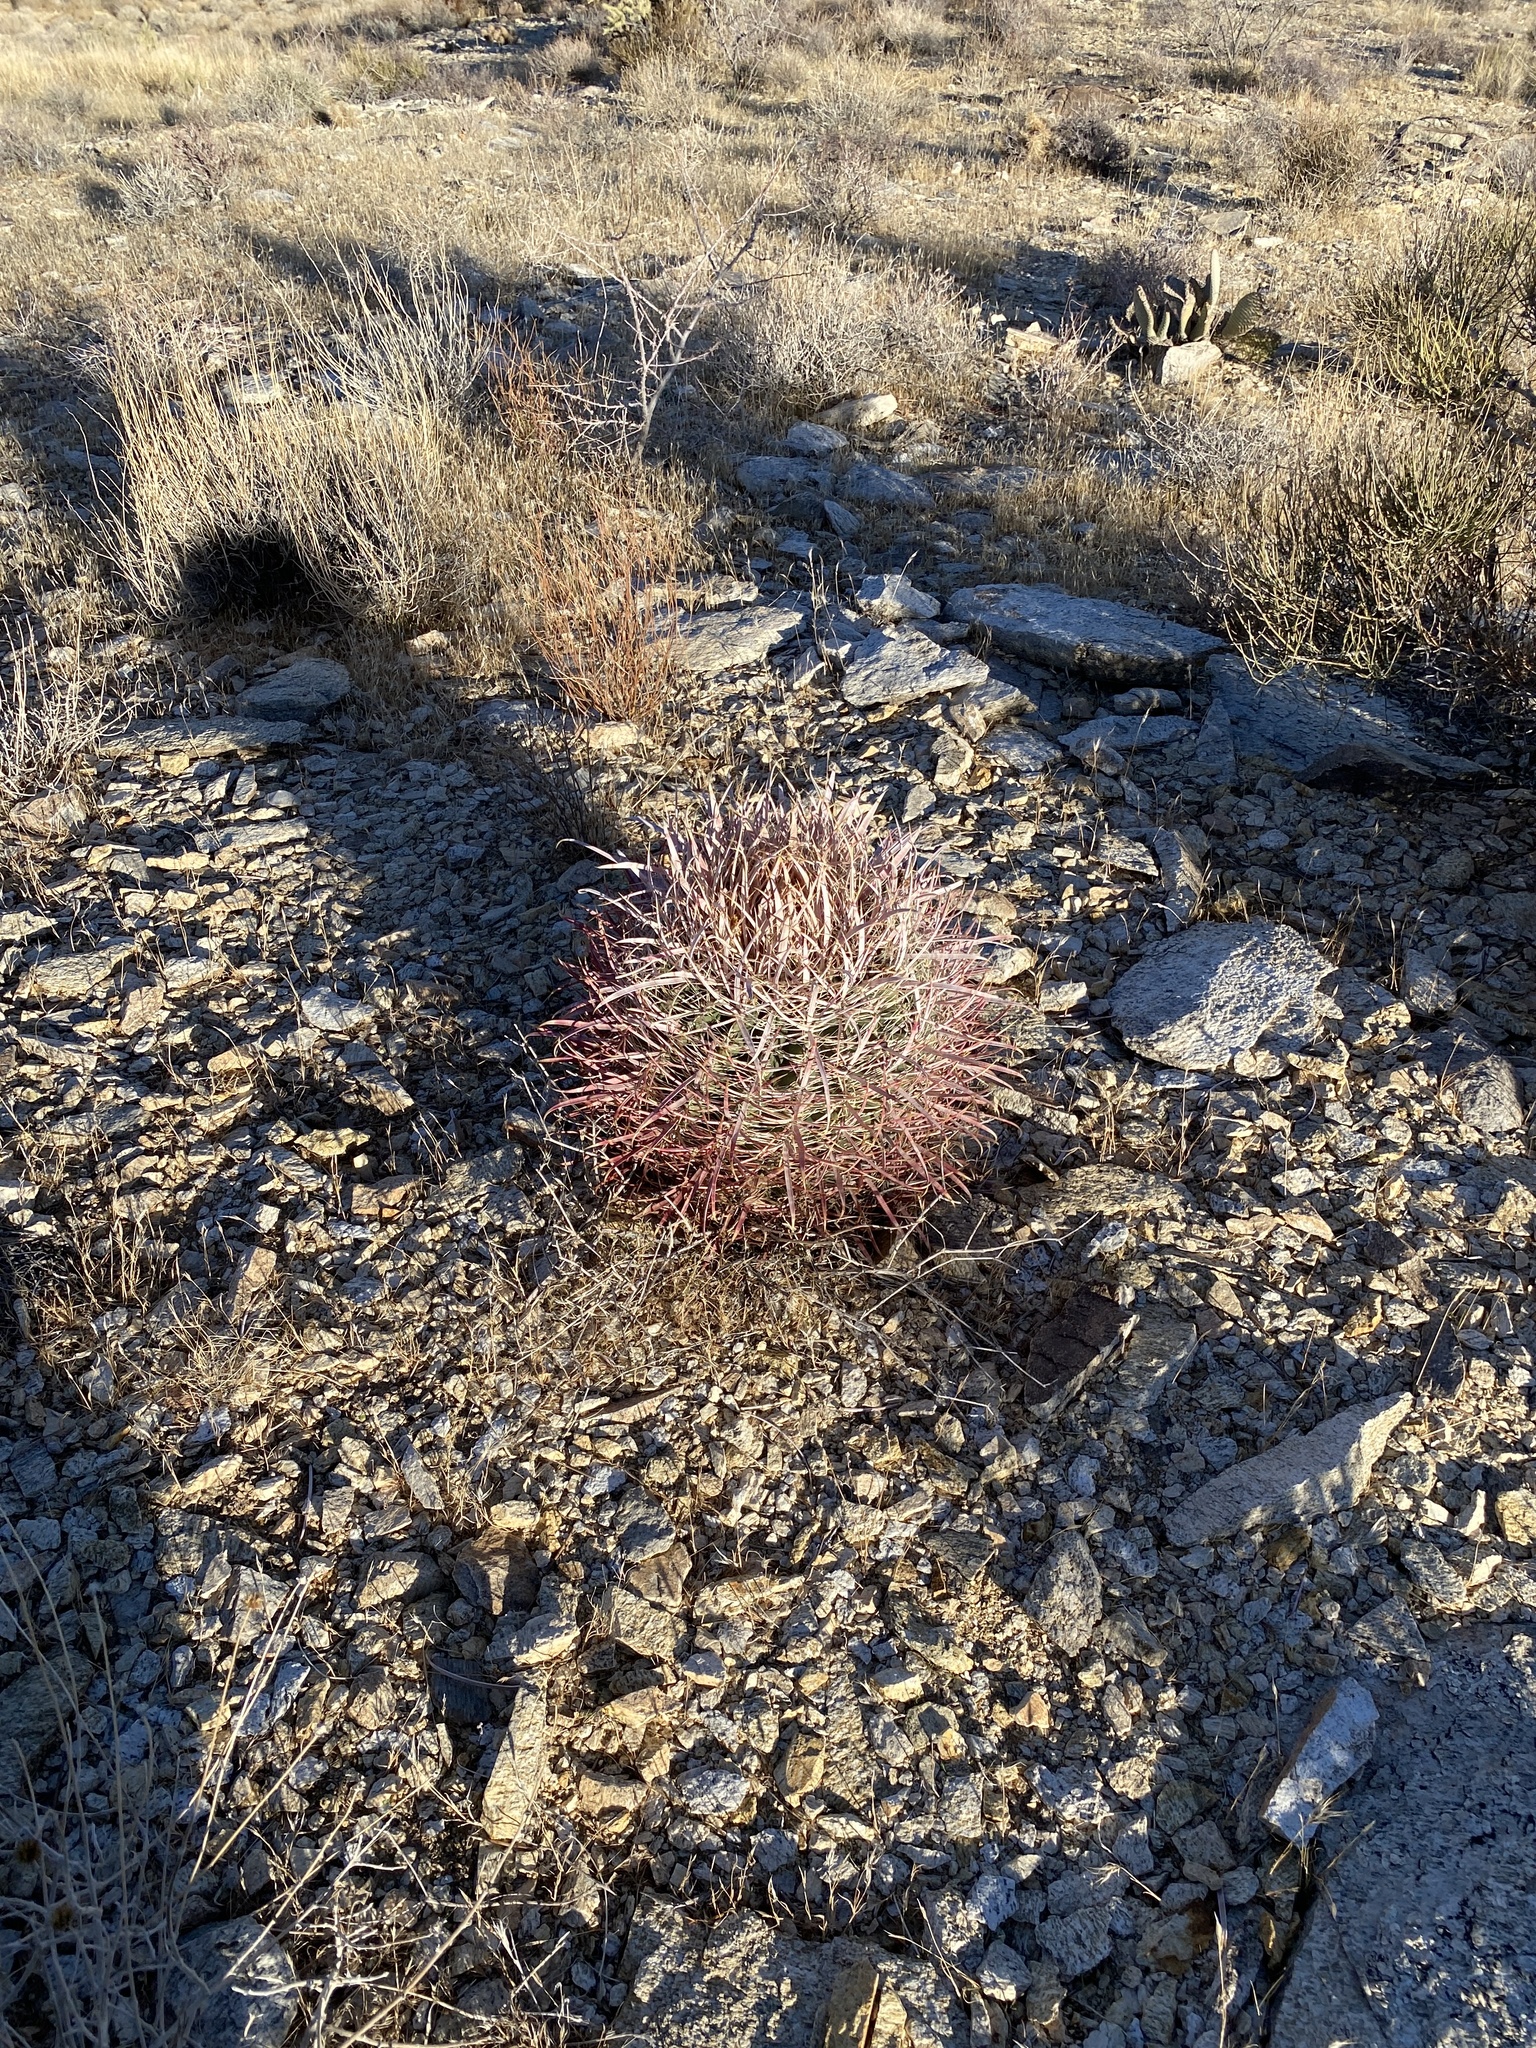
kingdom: Plantae
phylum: Tracheophyta
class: Magnoliopsida
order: Caryophyllales
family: Cactaceae
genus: Ferocactus
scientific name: Ferocactus cylindraceus
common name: California barrel cactus
